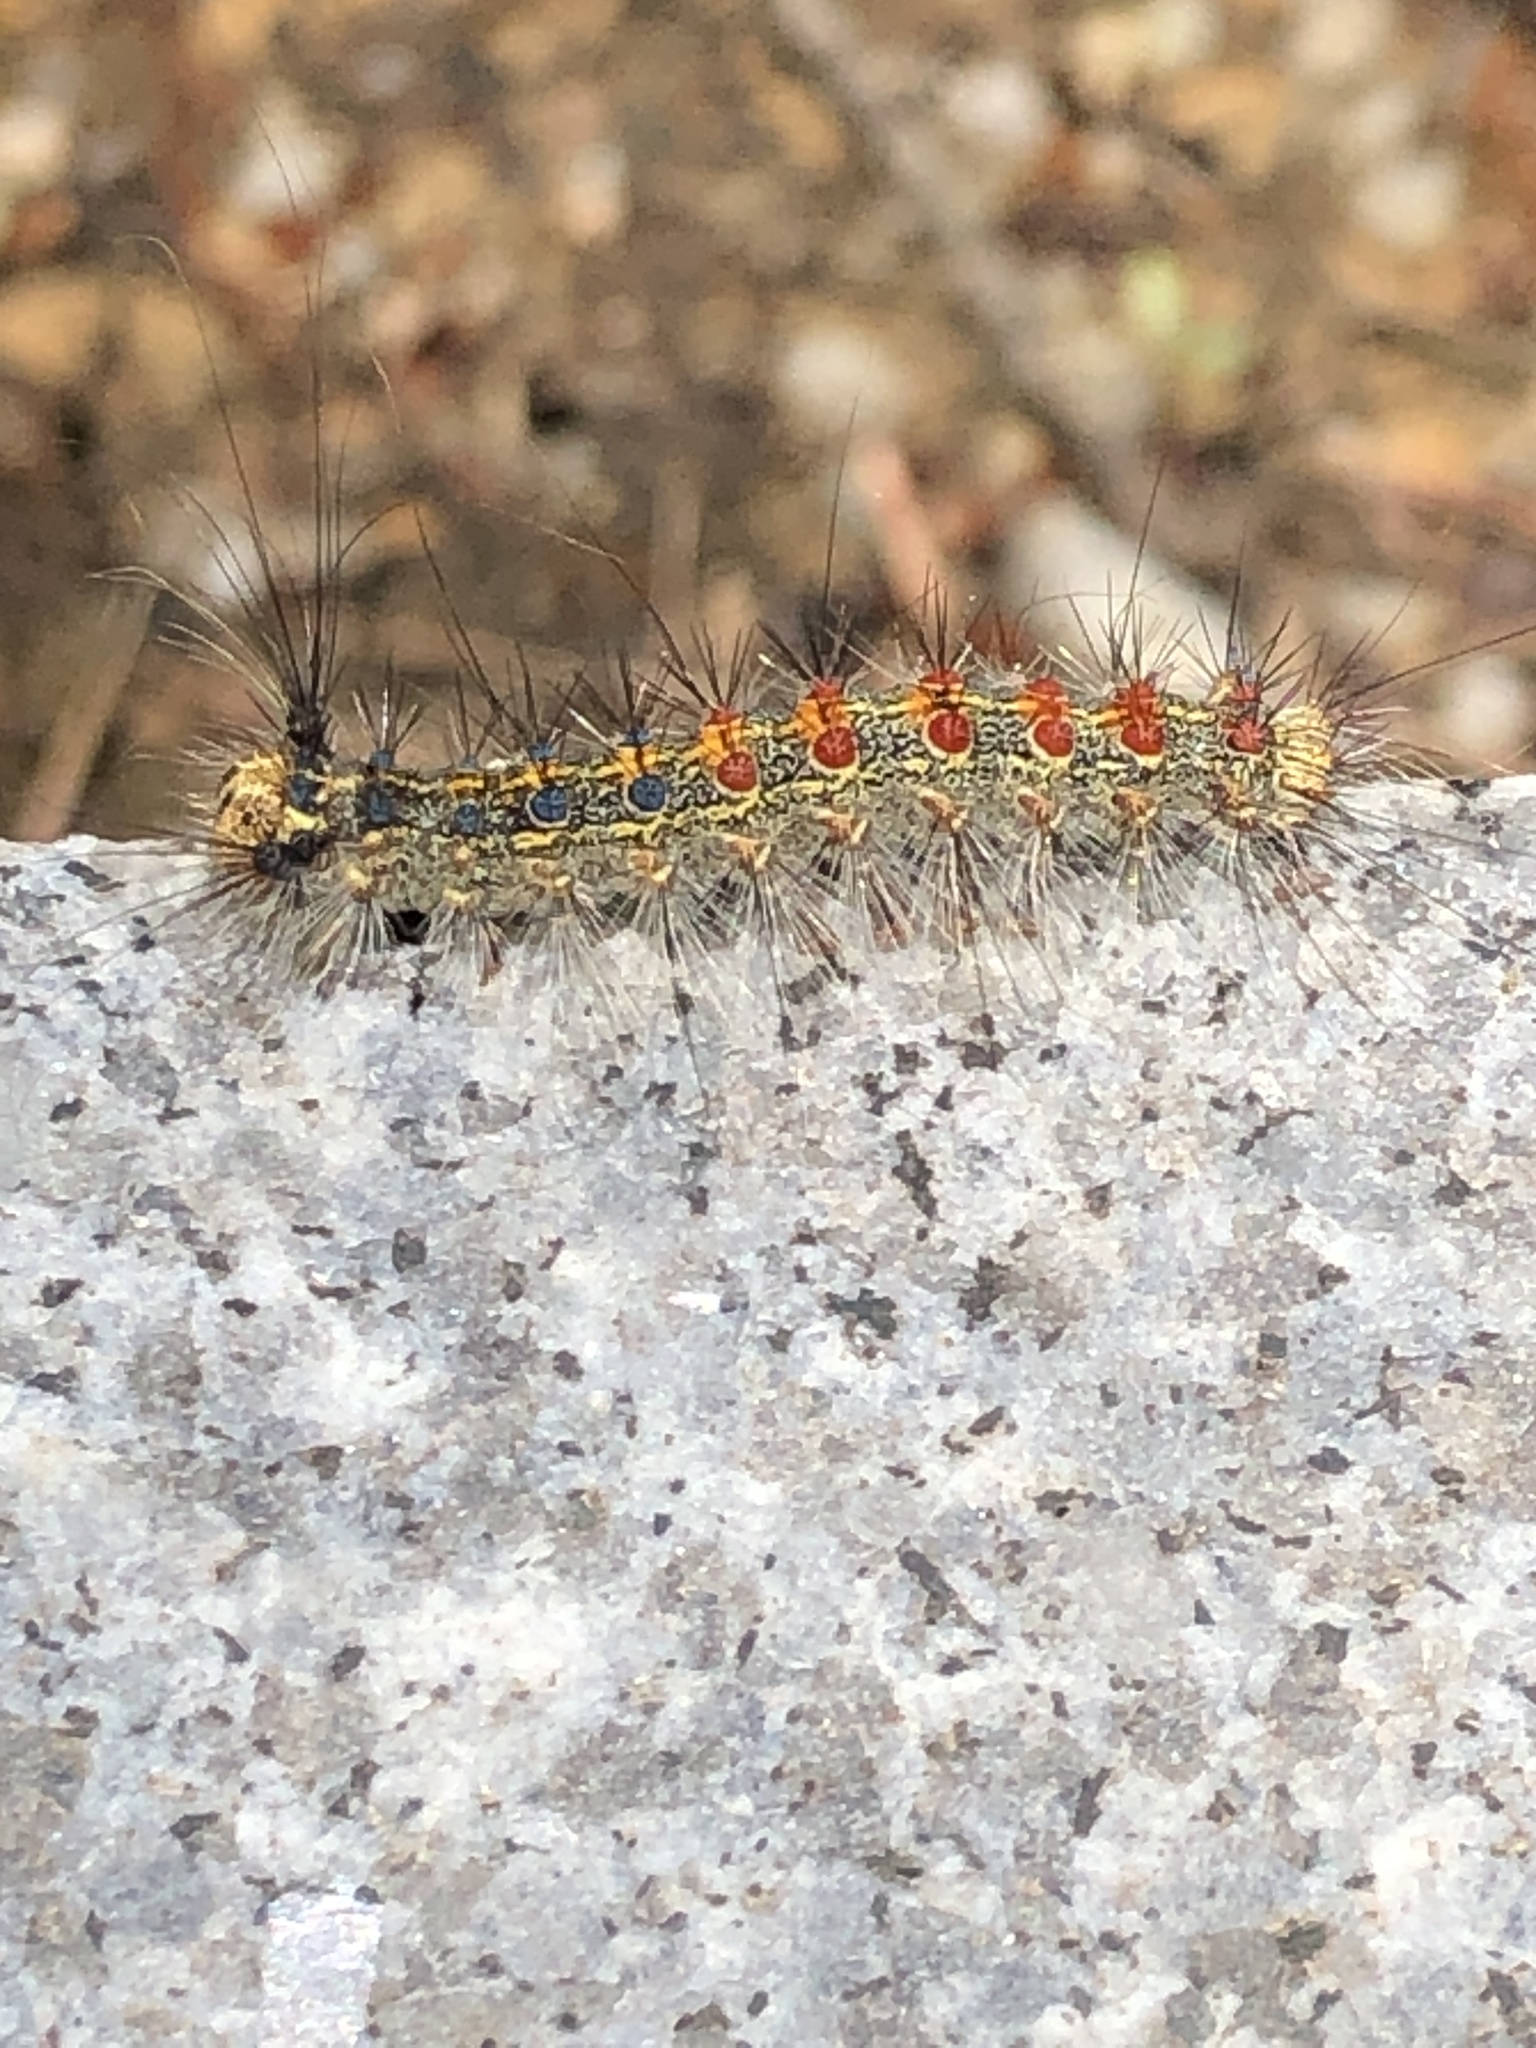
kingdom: Animalia
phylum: Arthropoda
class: Insecta
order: Lepidoptera
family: Erebidae
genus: Lymantria
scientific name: Lymantria dispar
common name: Gypsy moth
